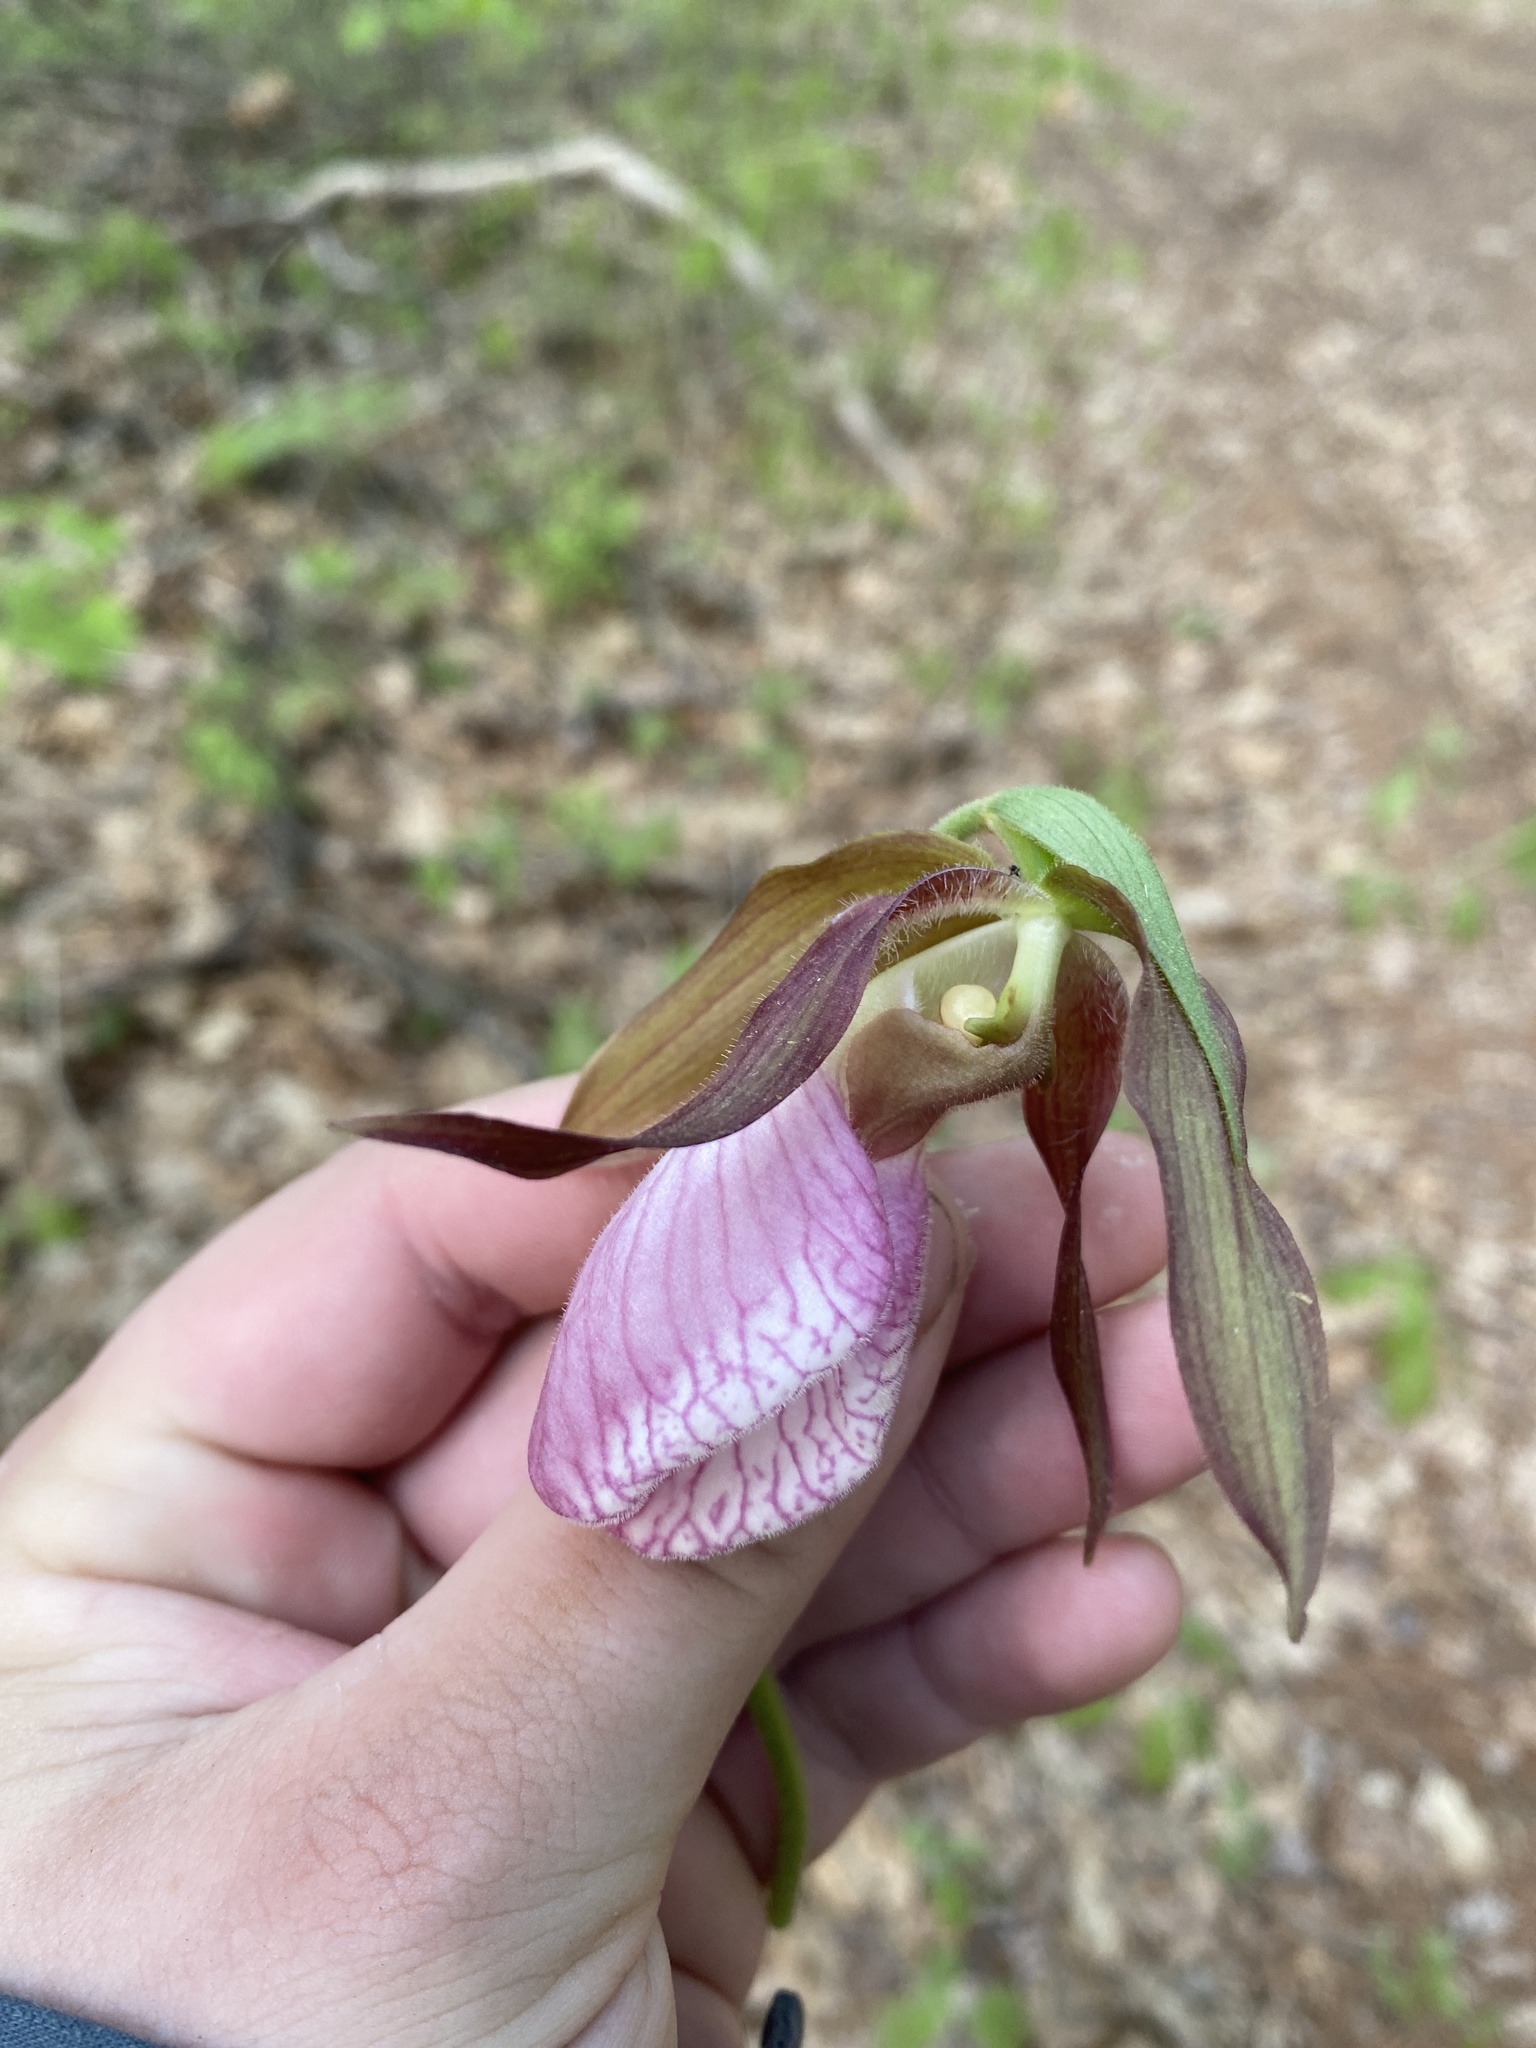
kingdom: Plantae
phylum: Tracheophyta
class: Liliopsida
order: Asparagales
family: Orchidaceae
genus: Cypripedium
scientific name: Cypripedium acaule
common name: Pink lady's-slipper
